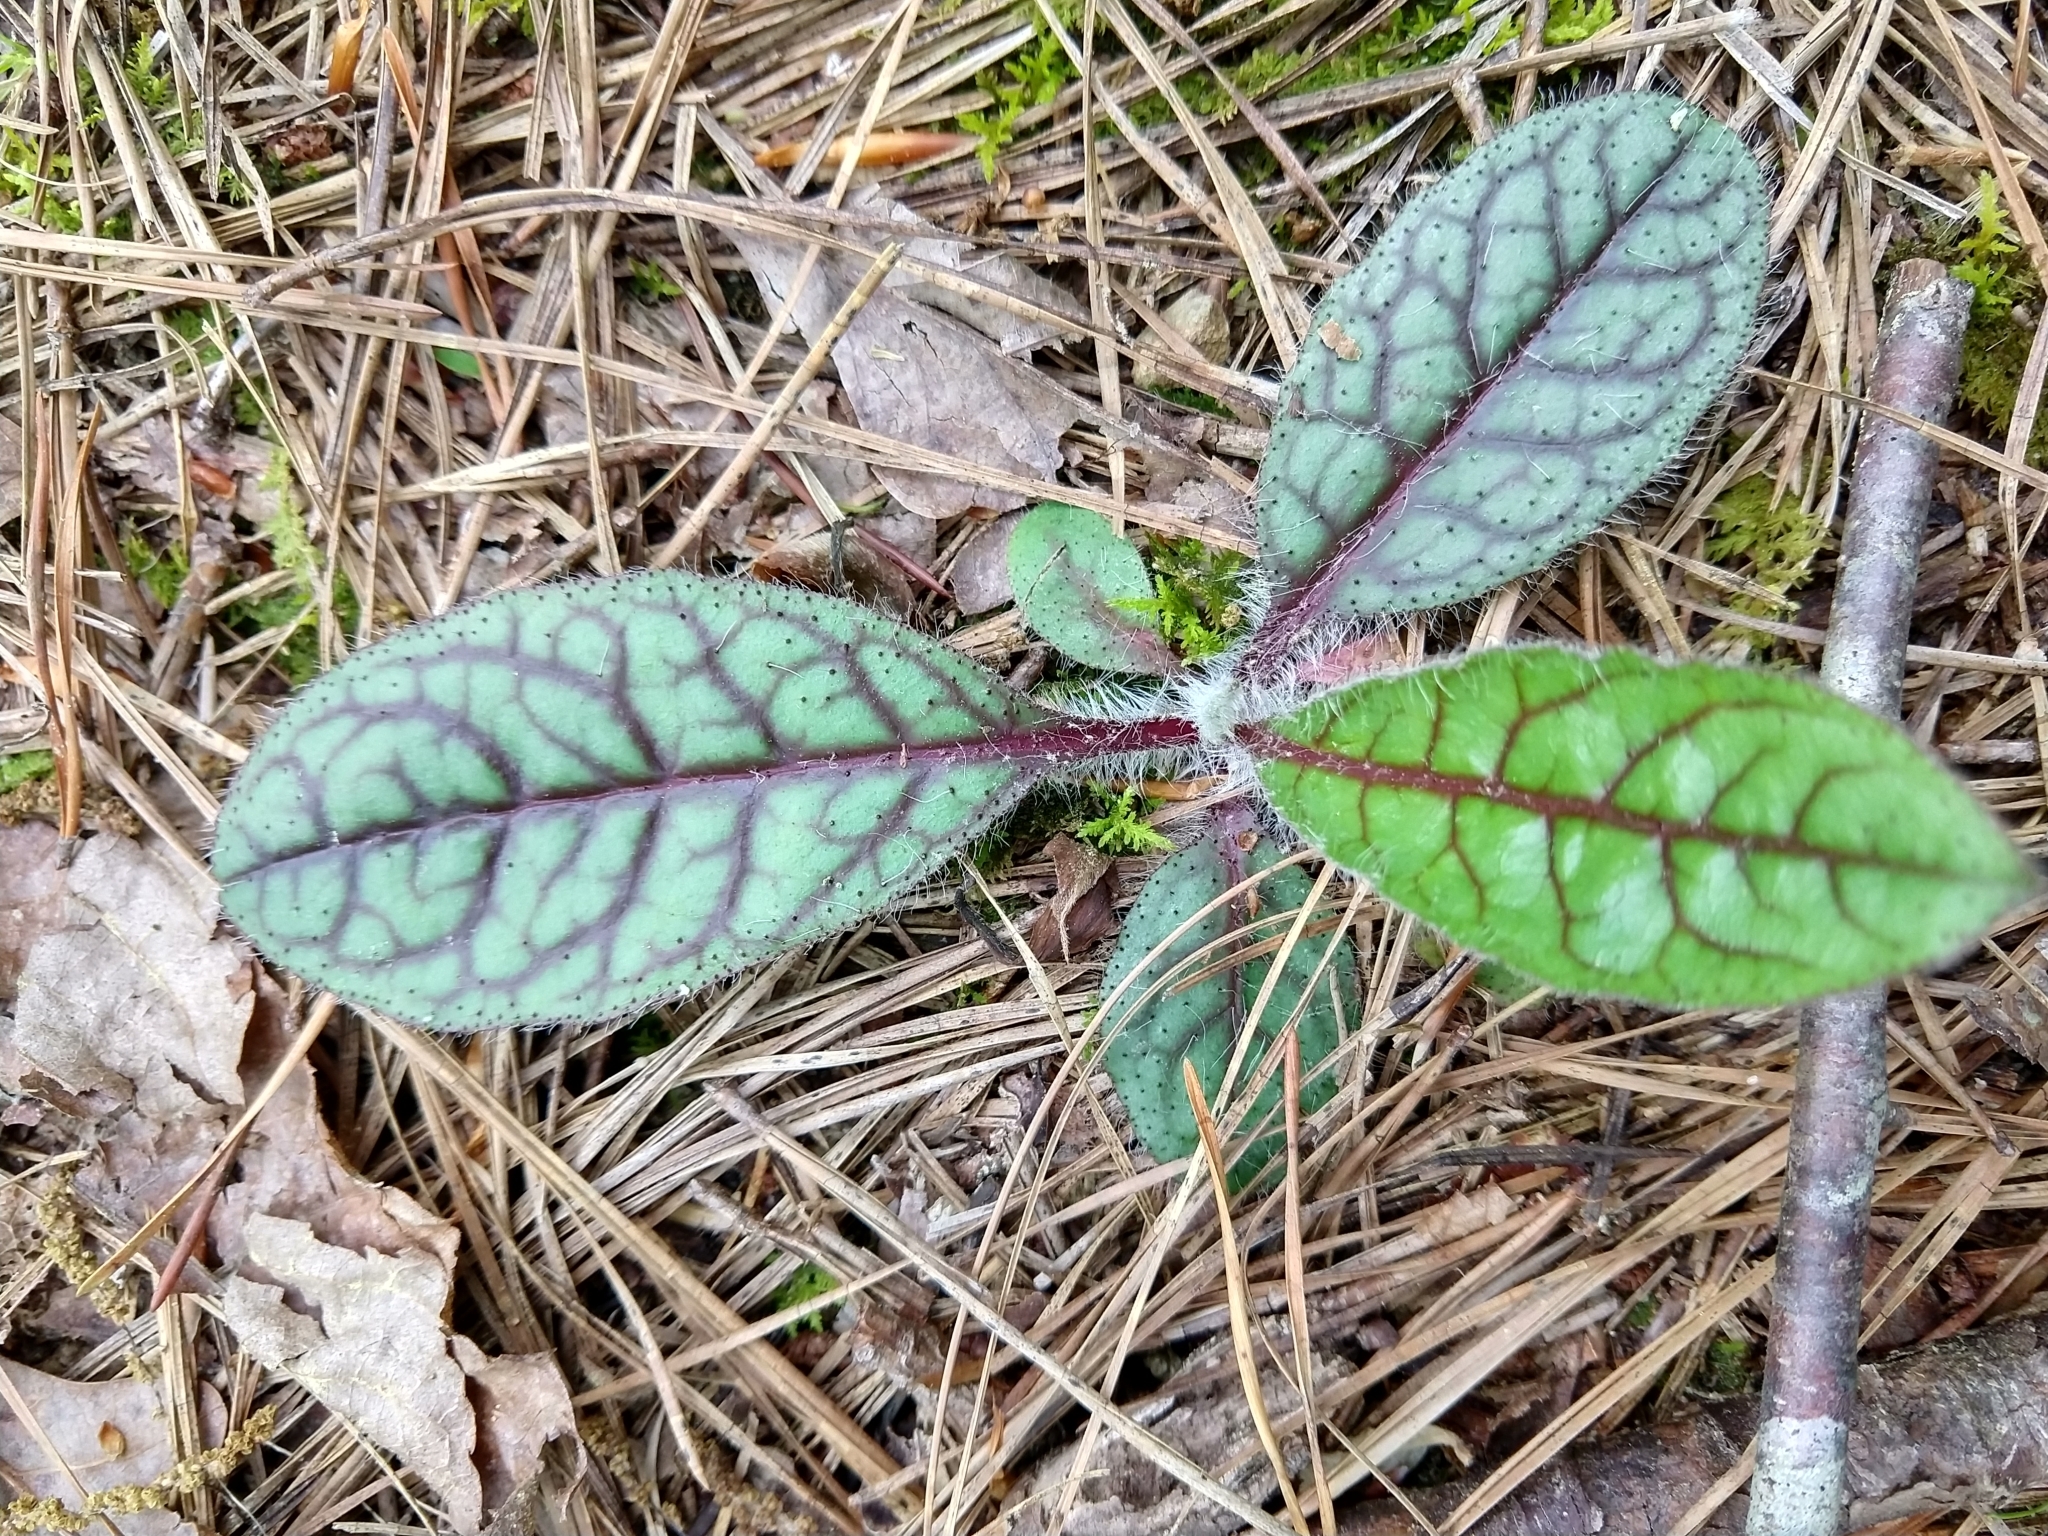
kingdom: Plantae
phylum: Tracheophyta
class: Magnoliopsida
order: Asterales
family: Asteraceae
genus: Hieracium
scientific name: Hieracium venosum
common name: Rattlesnake hawkweed
